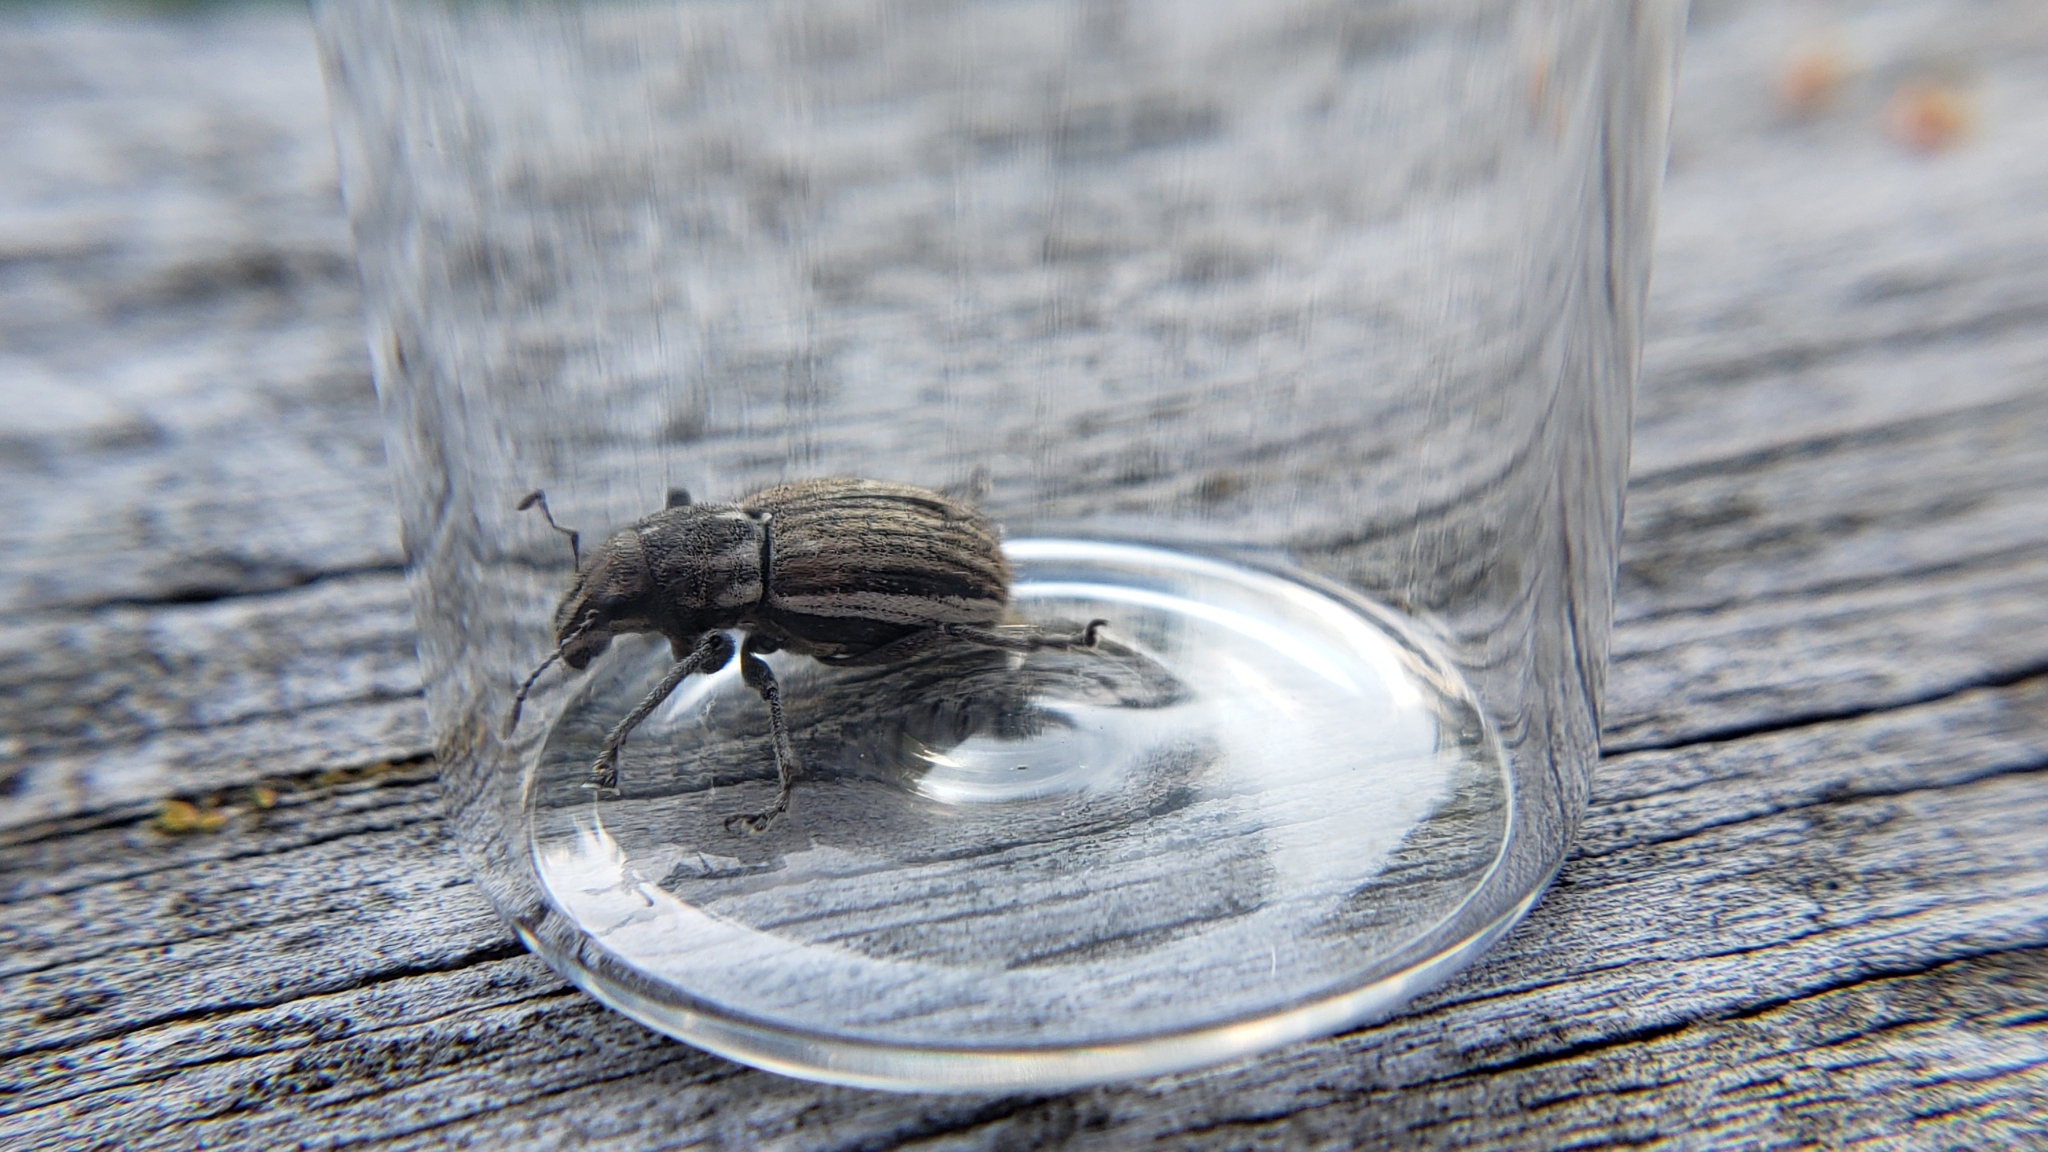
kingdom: Animalia
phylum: Arthropoda
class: Insecta
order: Coleoptera
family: Curculionidae
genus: Naupactus
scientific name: Naupactus leucoloma
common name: Whitefringed beetle
